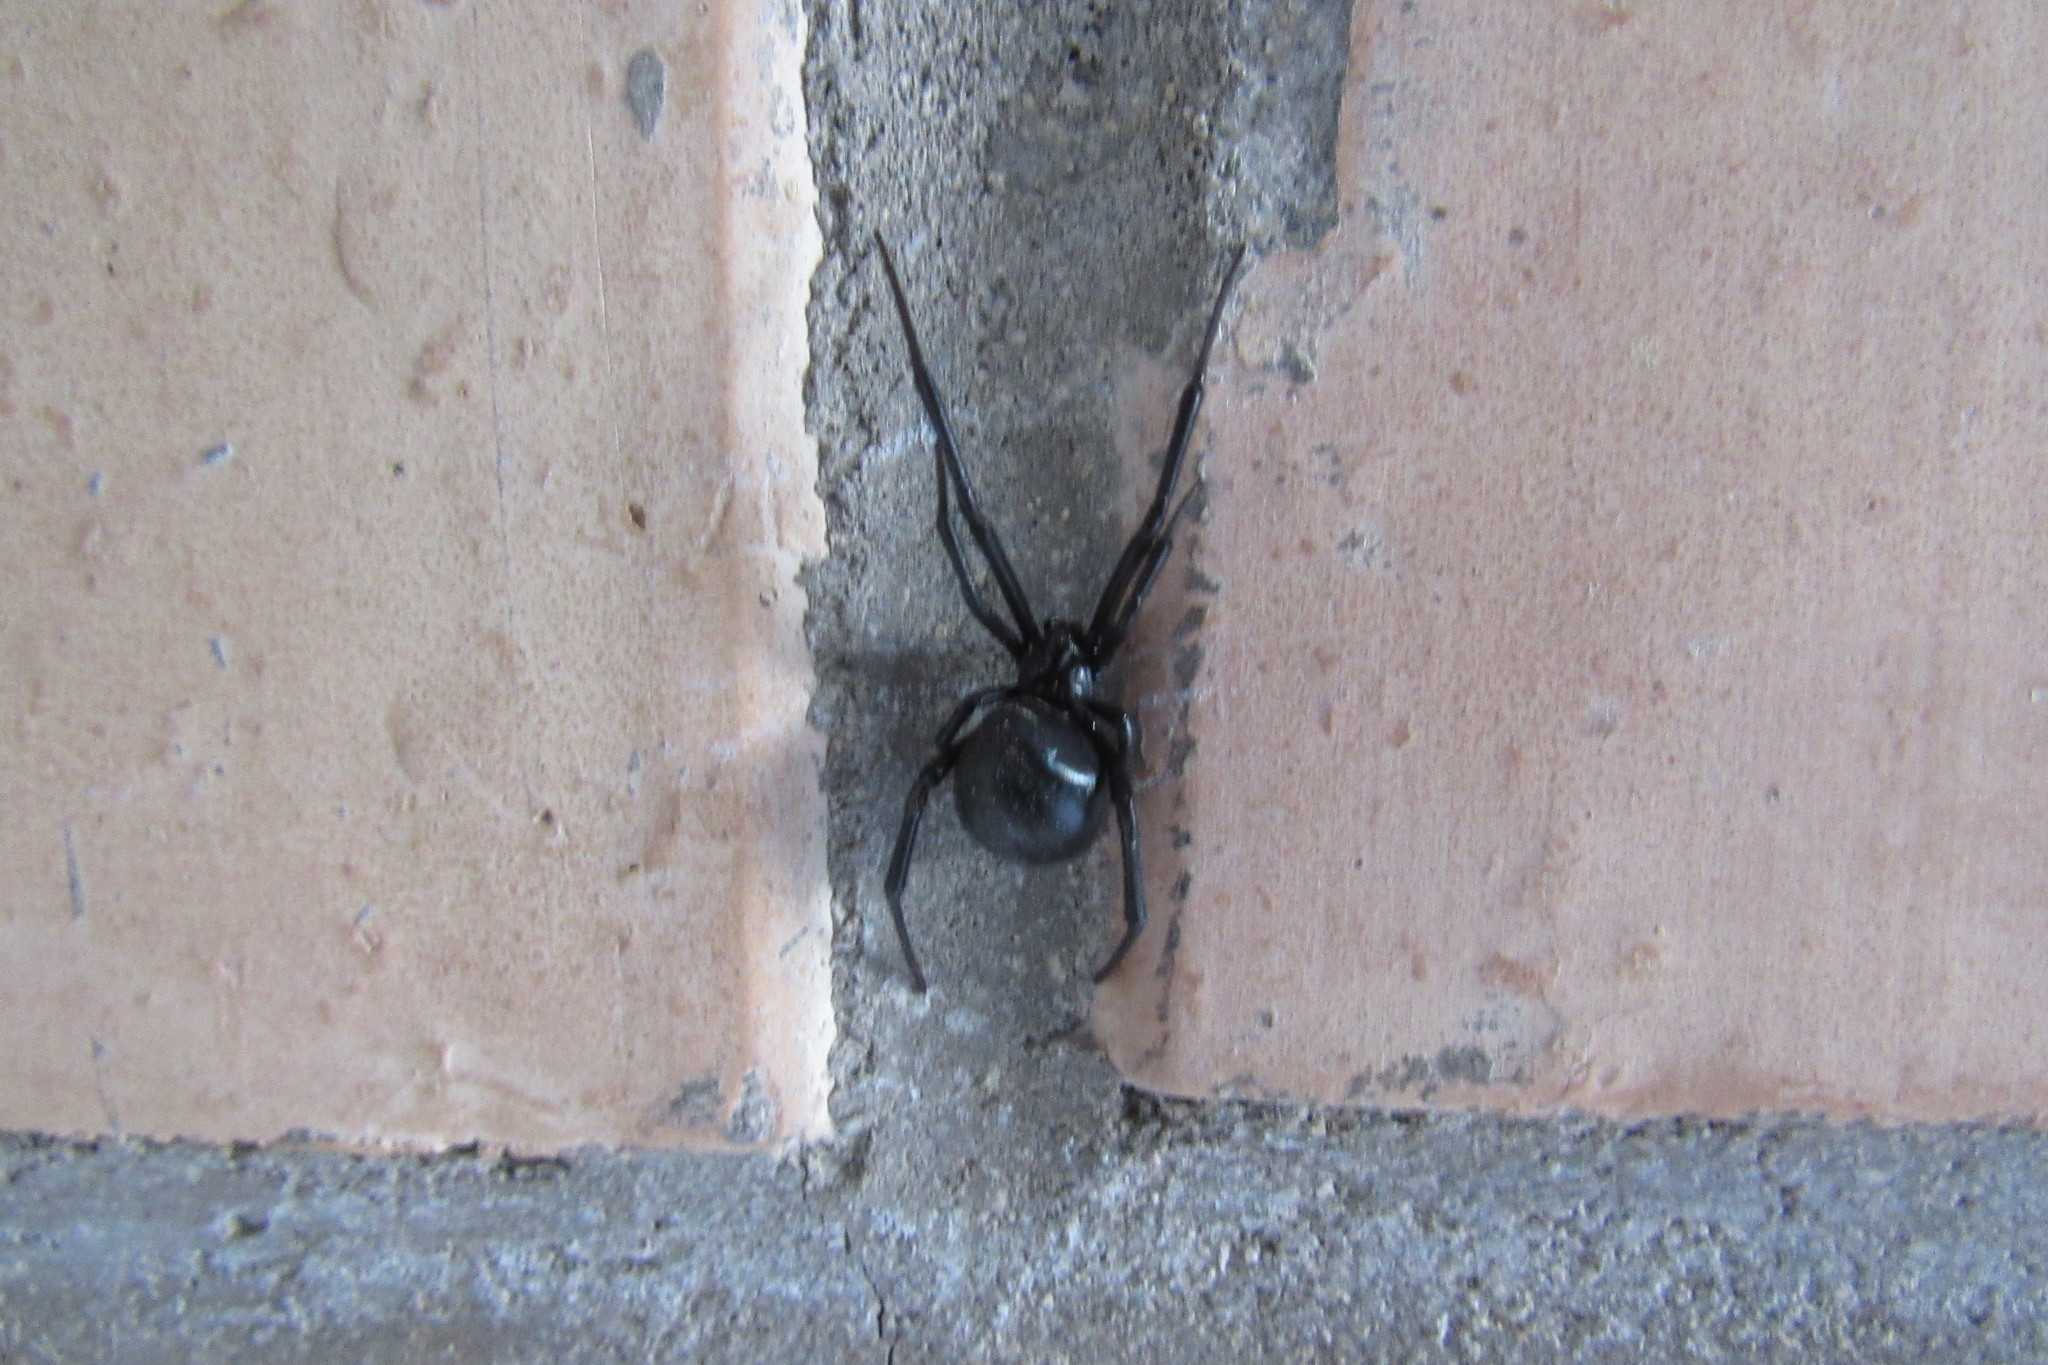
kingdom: Animalia
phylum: Arthropoda
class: Arachnida
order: Araneae
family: Theridiidae
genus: Latrodectus
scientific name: Latrodectus mactans
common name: Cobweb spiders
